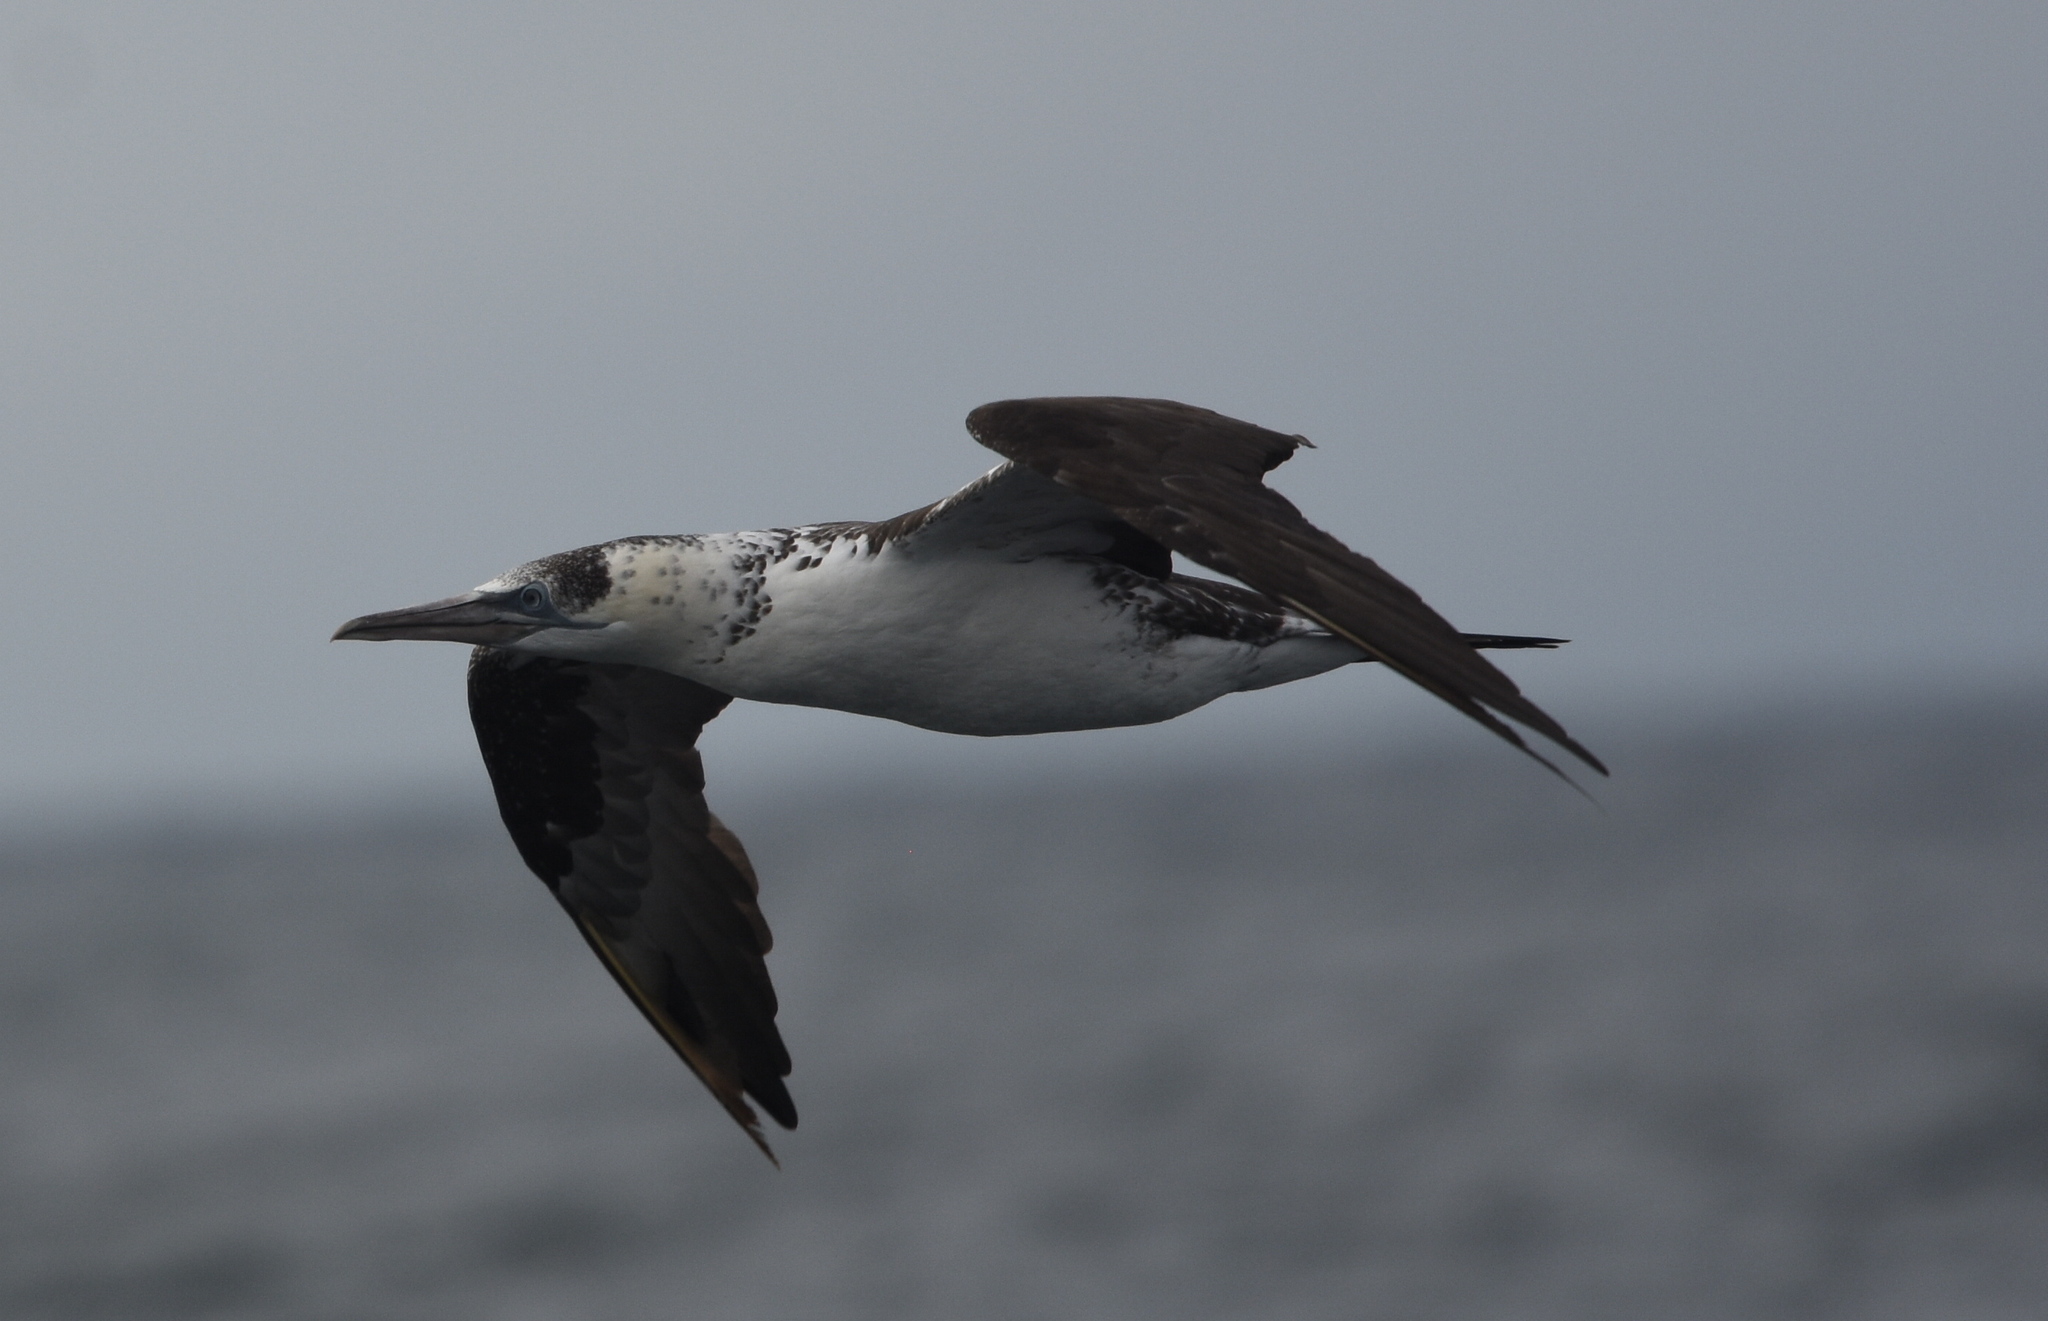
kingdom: Animalia
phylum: Chordata
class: Aves
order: Suliformes
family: Sulidae
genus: Morus
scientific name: Morus bassanus
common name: Northern gannet
